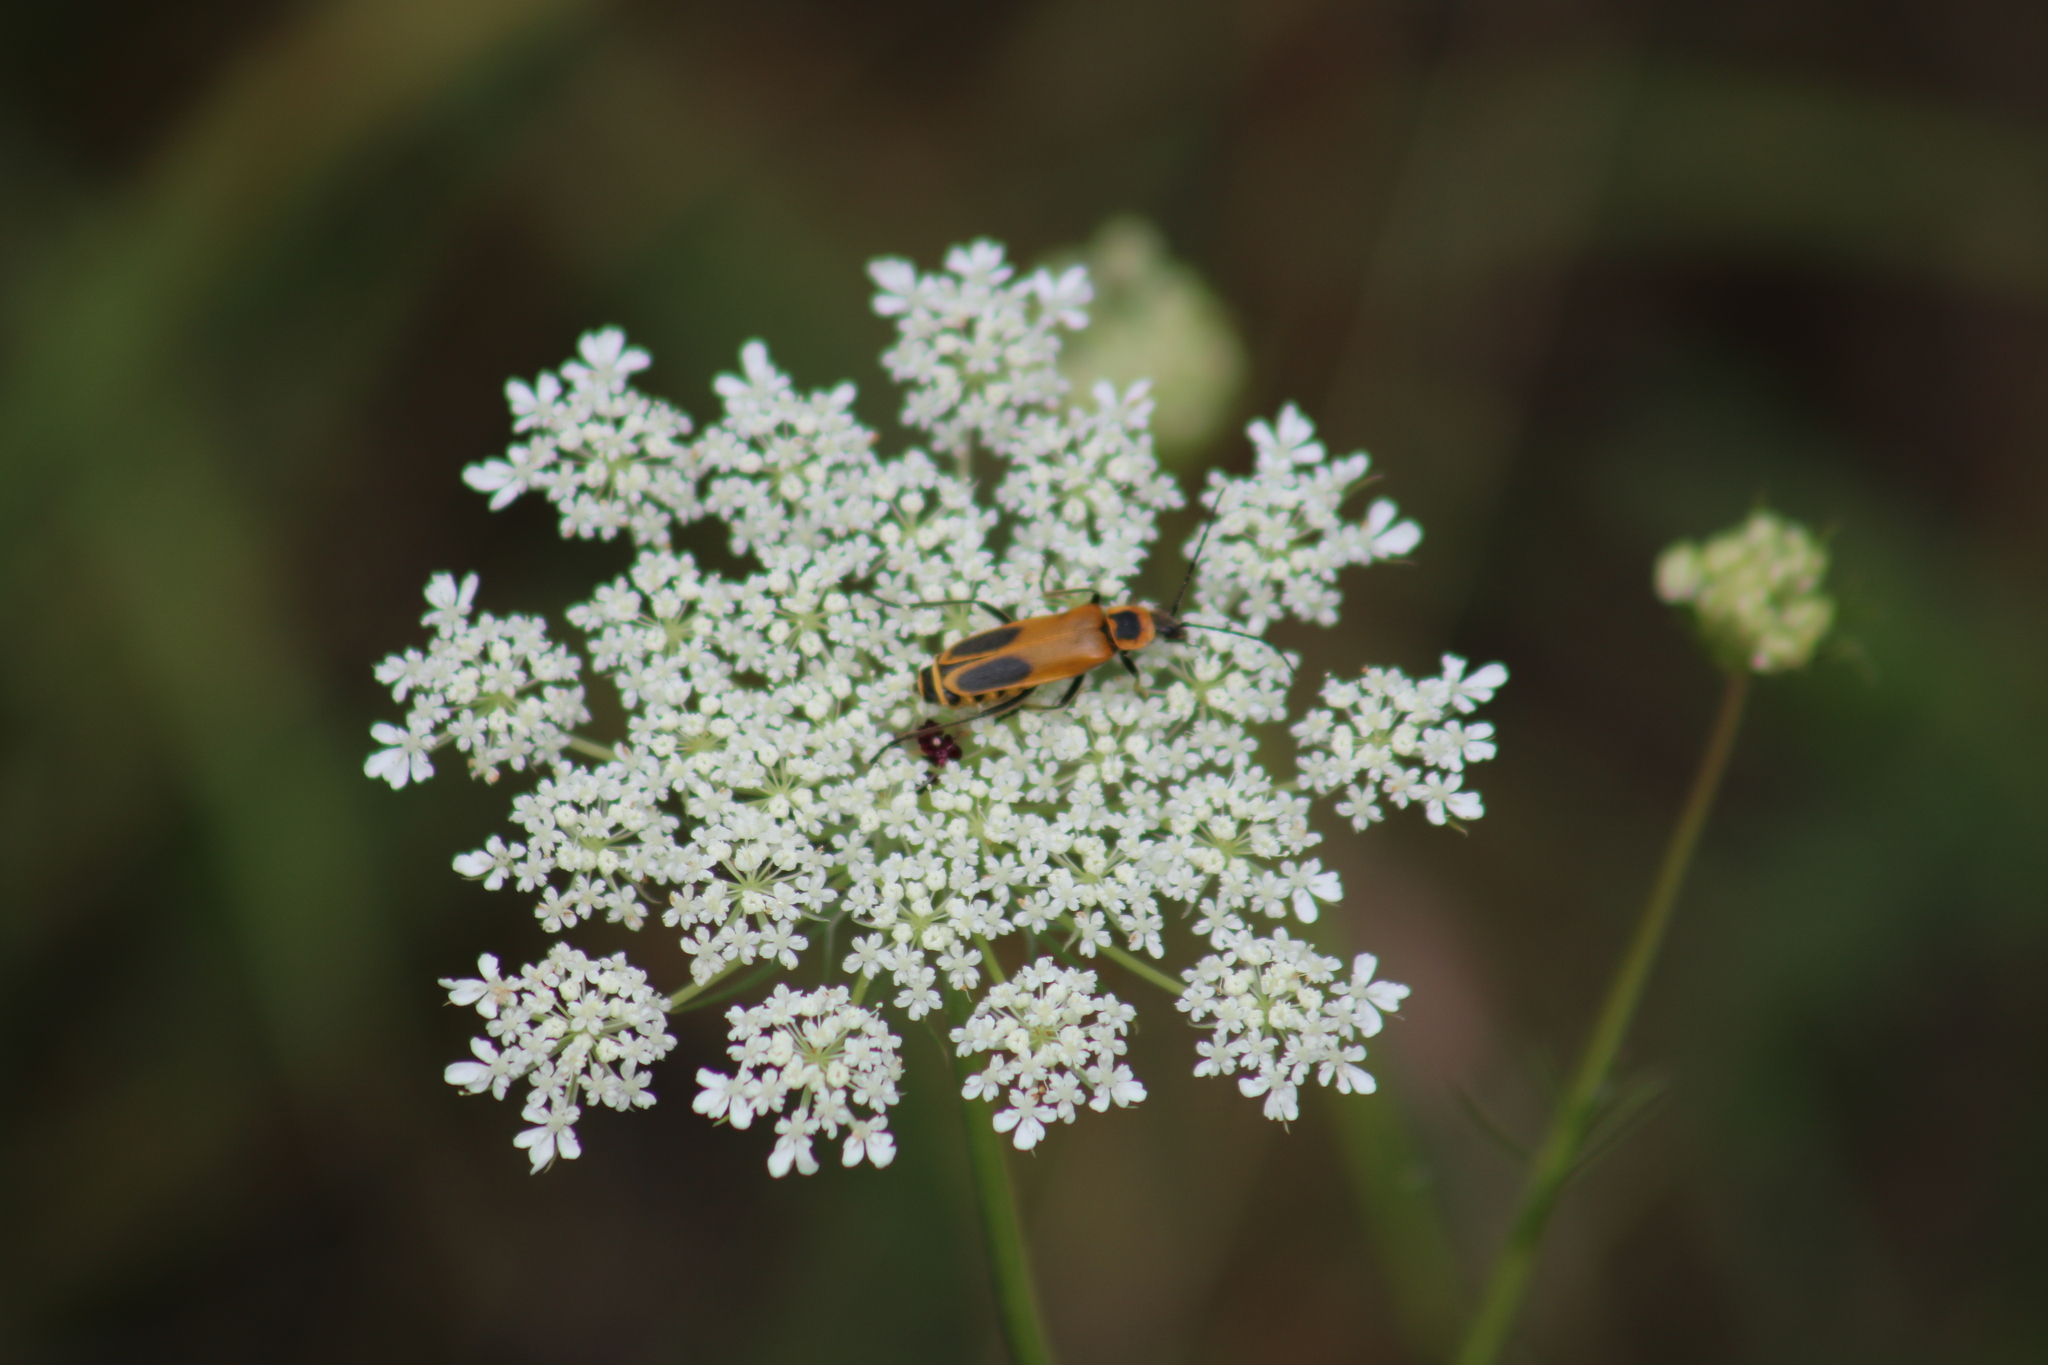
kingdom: Animalia
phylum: Arthropoda
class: Insecta
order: Coleoptera
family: Cantharidae
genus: Chauliognathus
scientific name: Chauliognathus pensylvanicus
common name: Goldenrod soldier beetle
